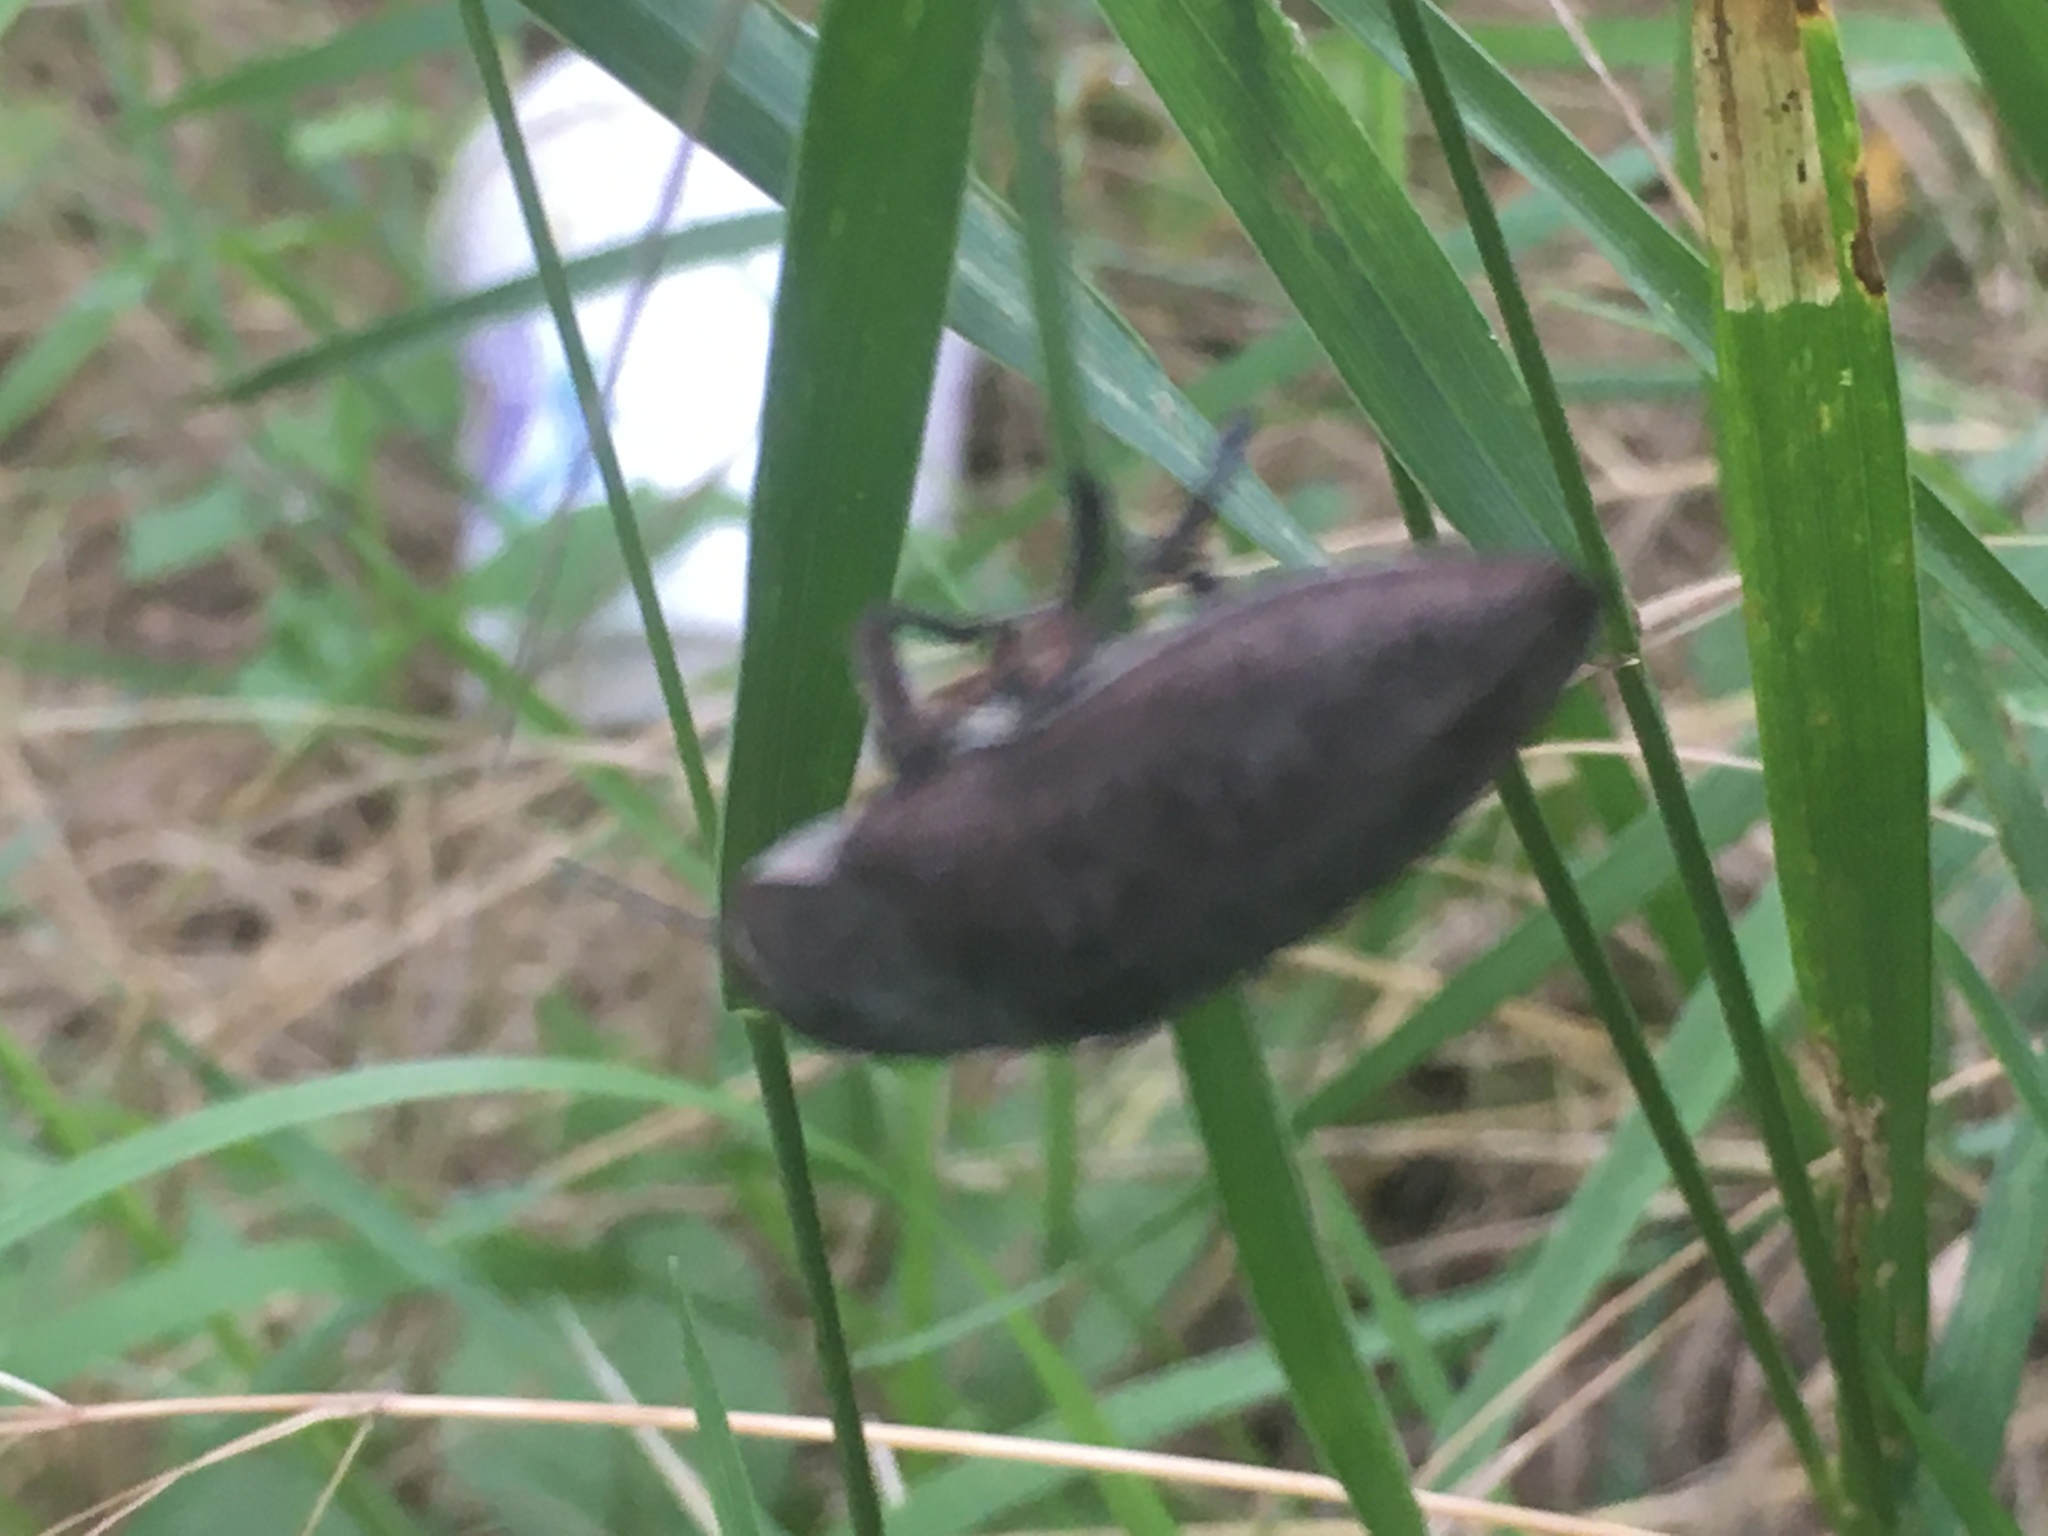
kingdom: Animalia
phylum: Arthropoda
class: Insecta
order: Coleoptera
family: Buprestidae
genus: Perotis
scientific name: Perotis lugubris
